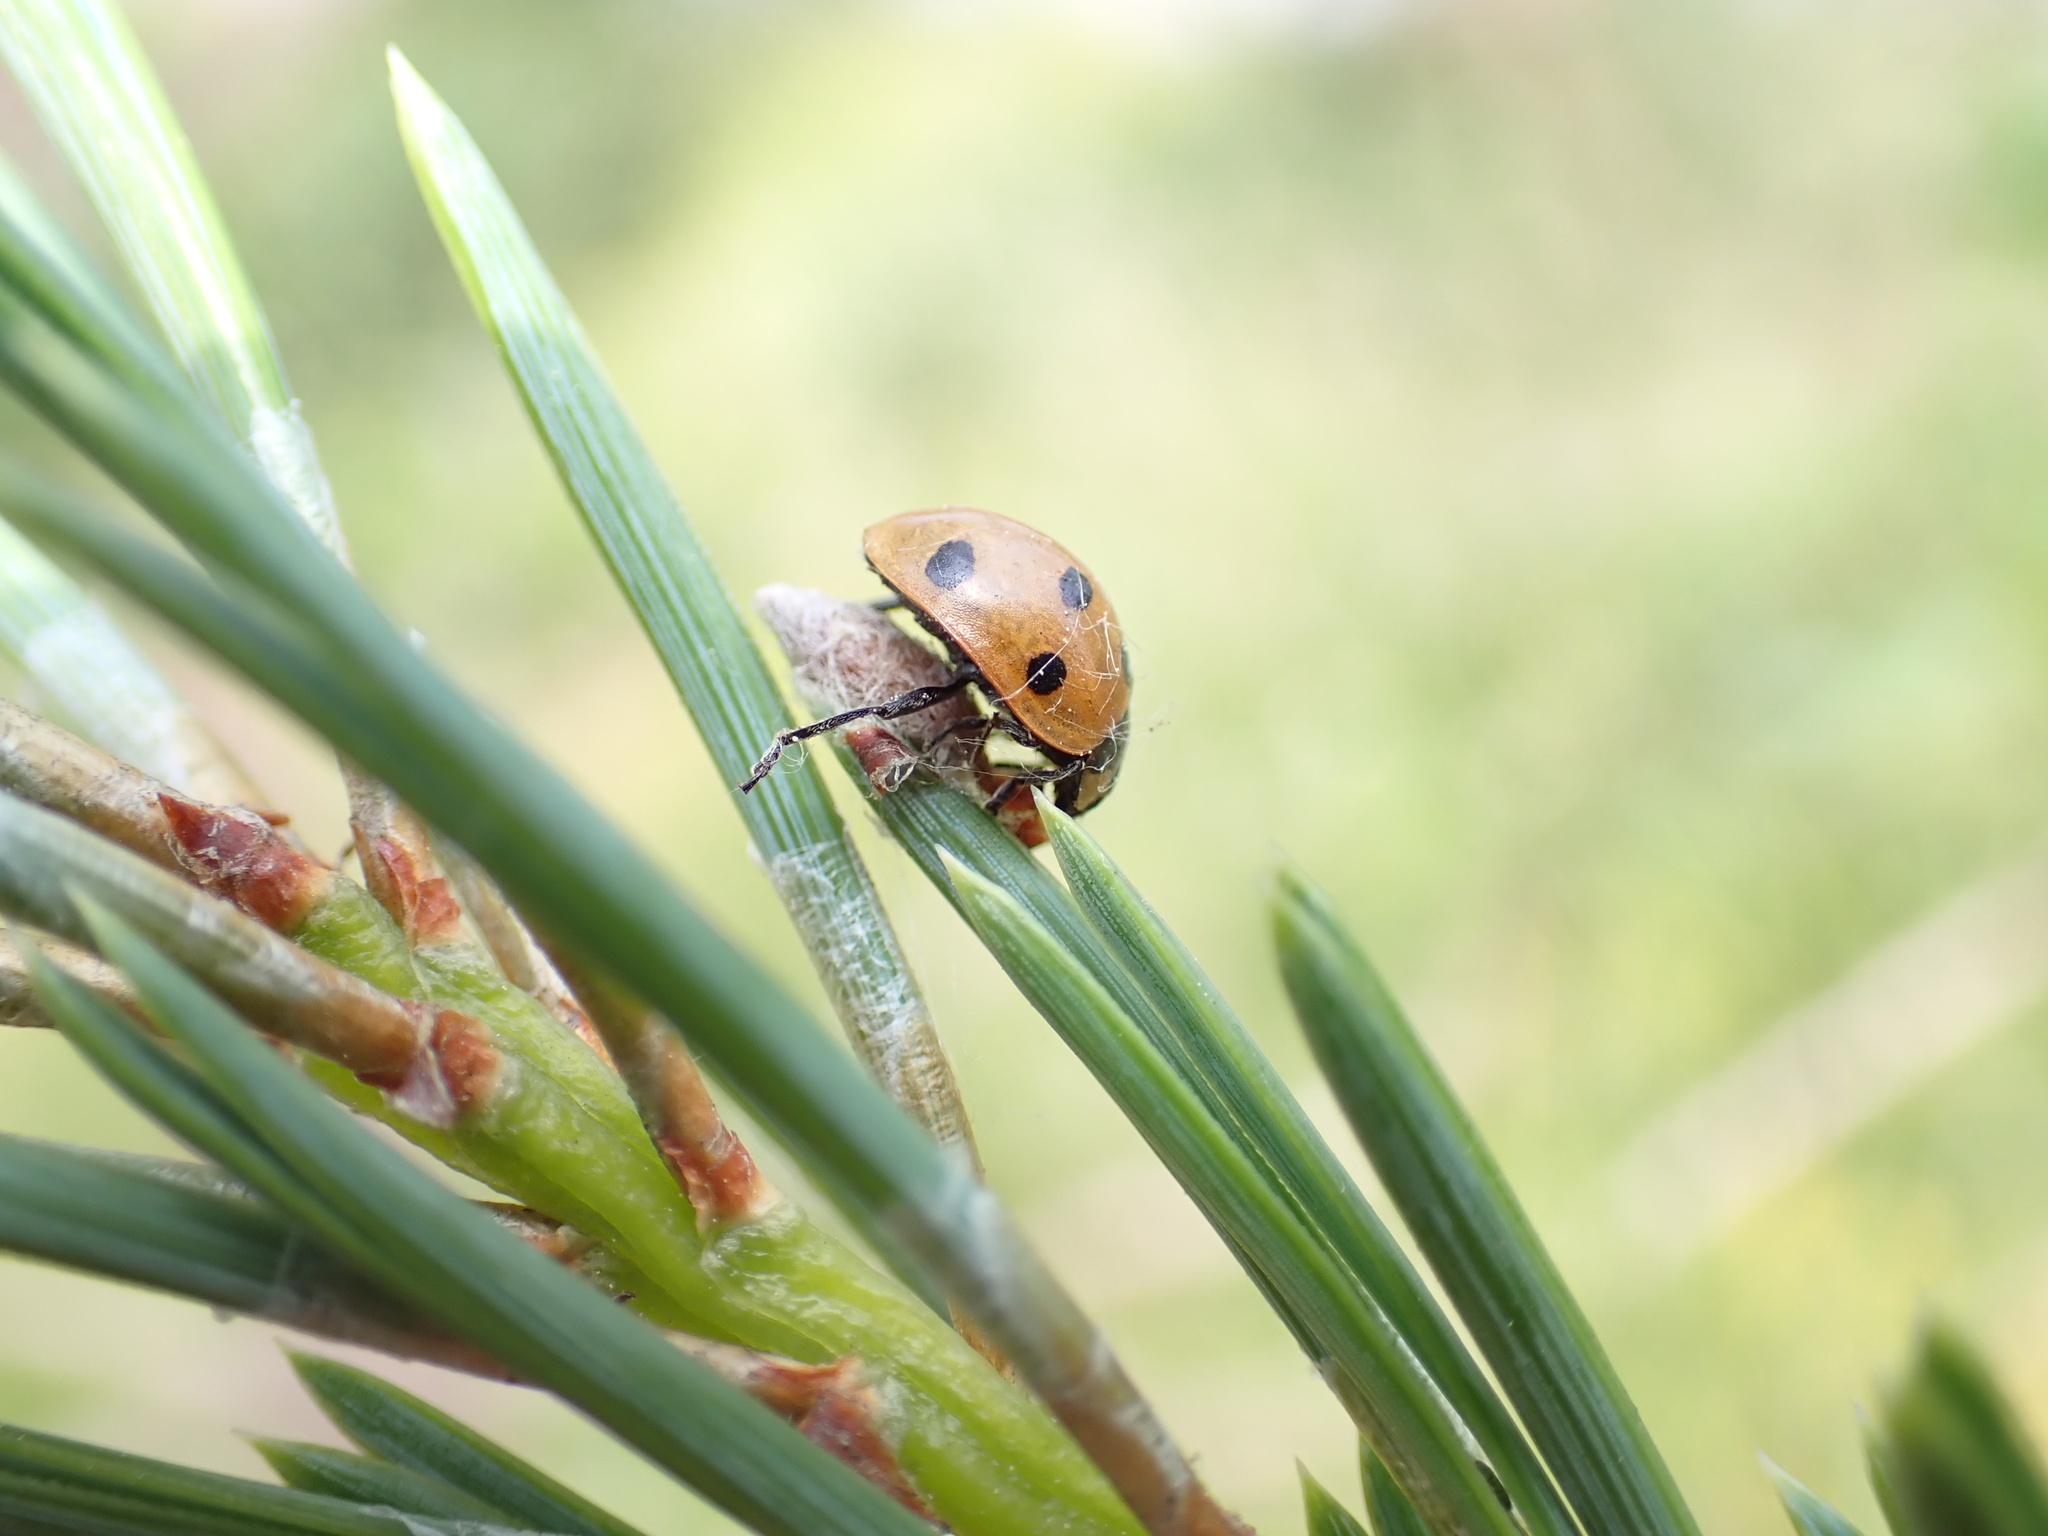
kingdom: Viruses
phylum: Pisuviricota
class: Pisoniviricetes
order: Picornavirales
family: Iflaviridae
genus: Iflavirus
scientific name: Iflavirus dinococcinellae
